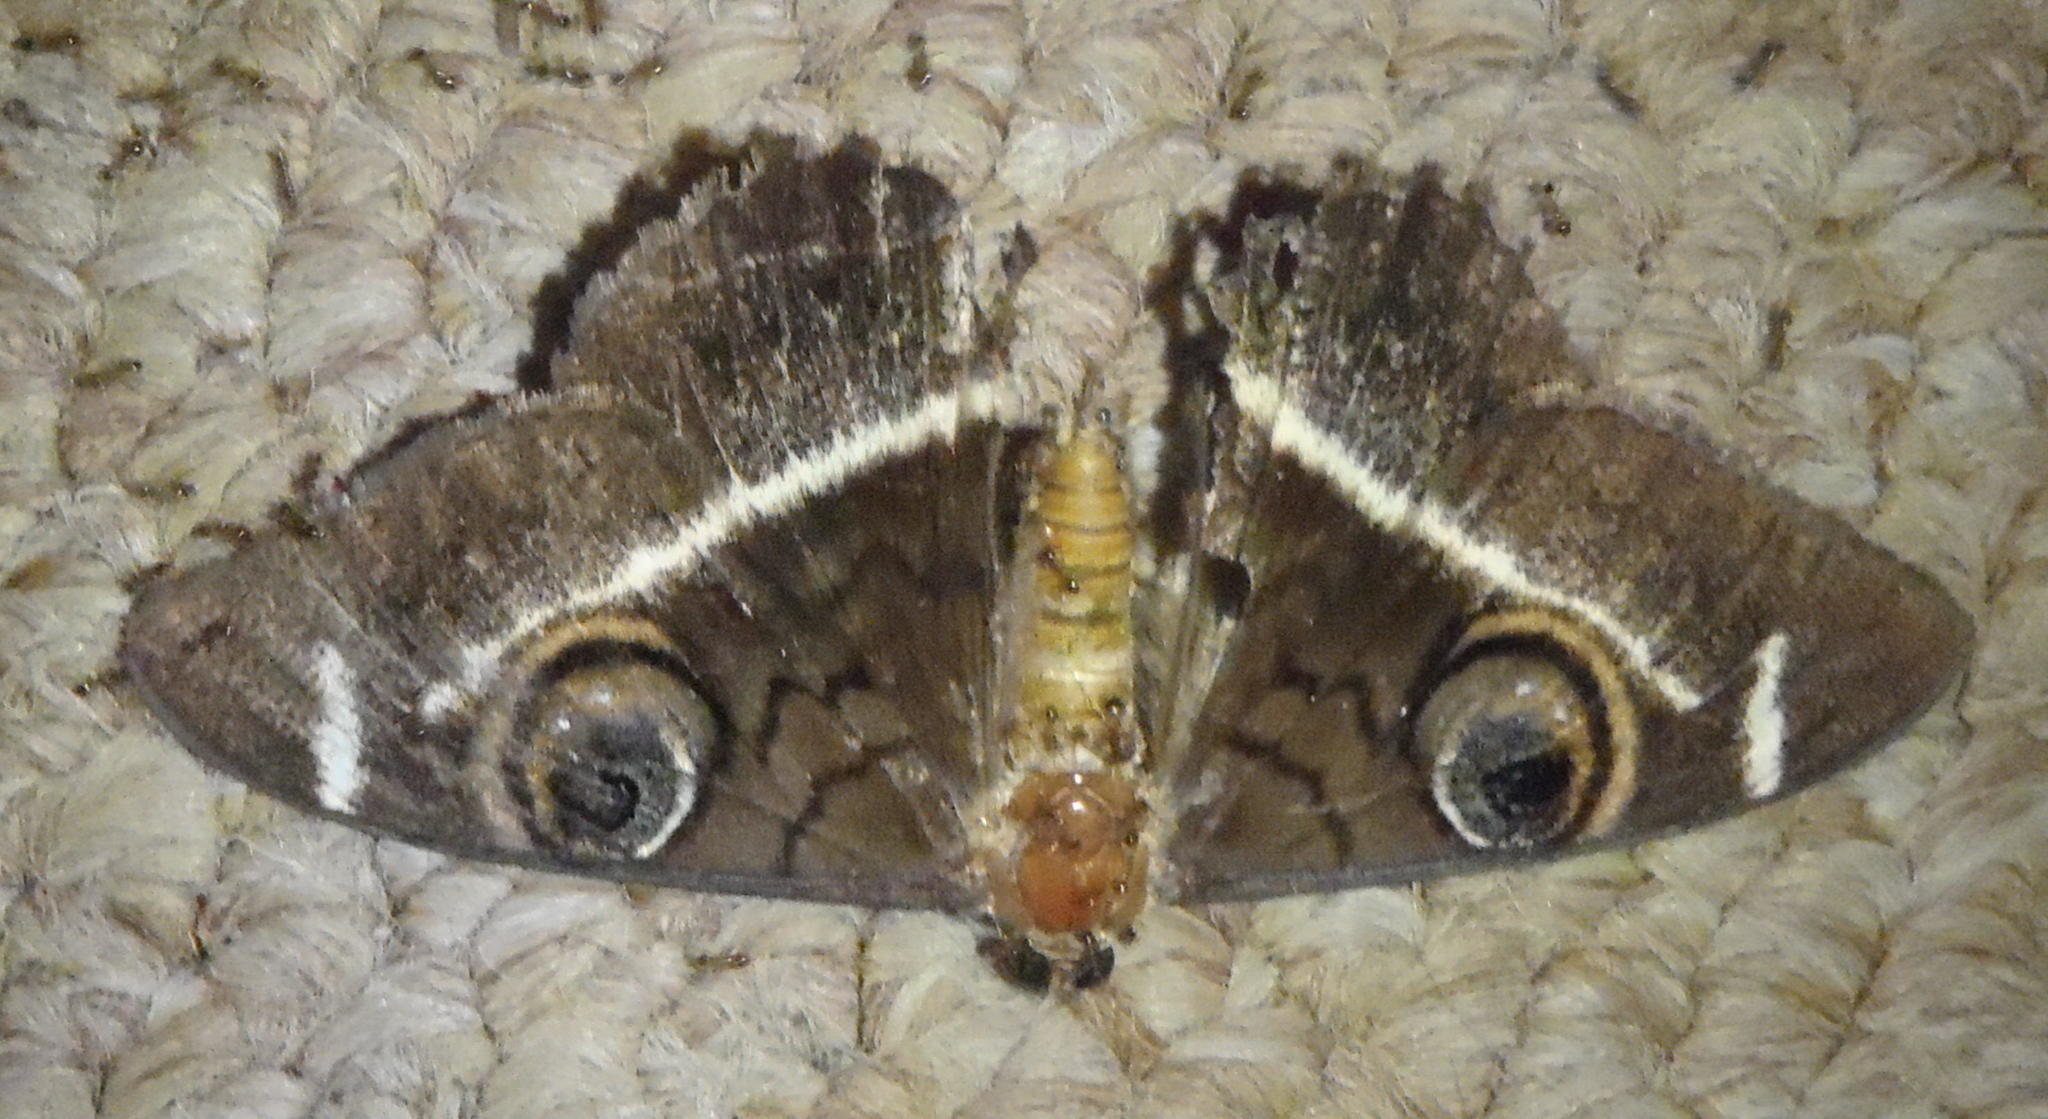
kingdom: Animalia
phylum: Arthropoda
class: Insecta
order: Lepidoptera
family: Erebidae
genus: Cyligramma
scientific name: Cyligramma latona
